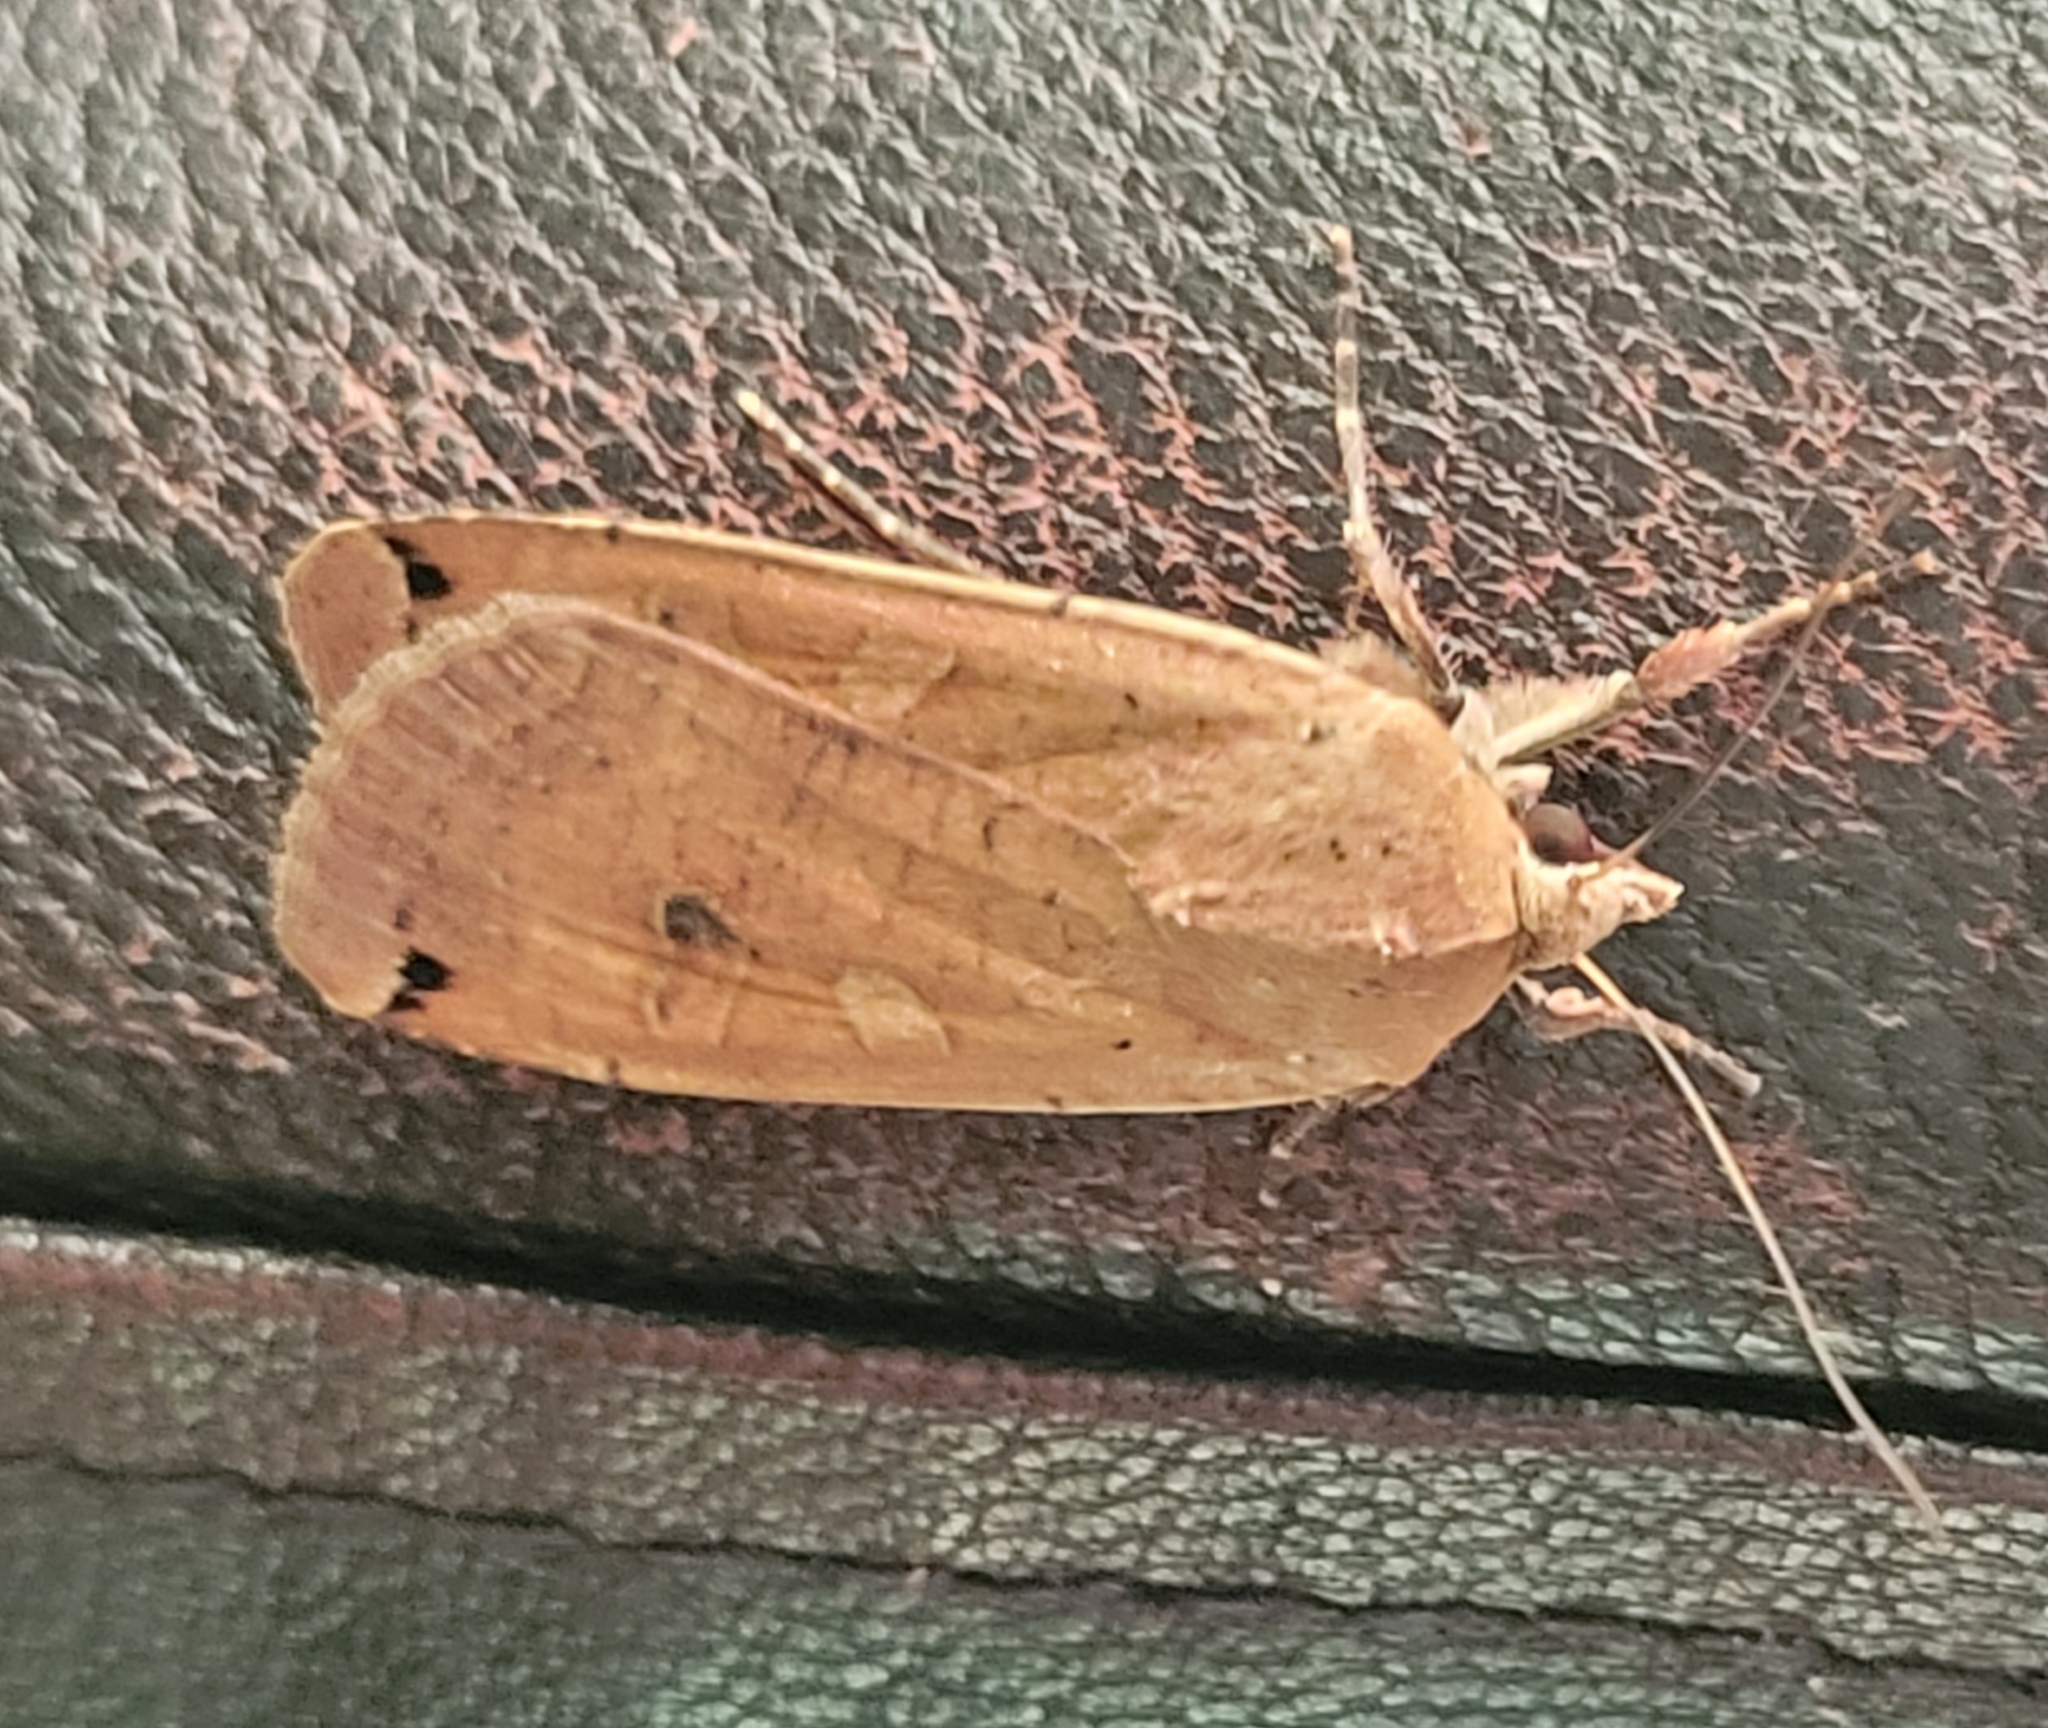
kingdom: Animalia
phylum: Arthropoda
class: Insecta
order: Lepidoptera
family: Noctuidae
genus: Noctua
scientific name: Noctua pronuba
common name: Large yellow underwing
